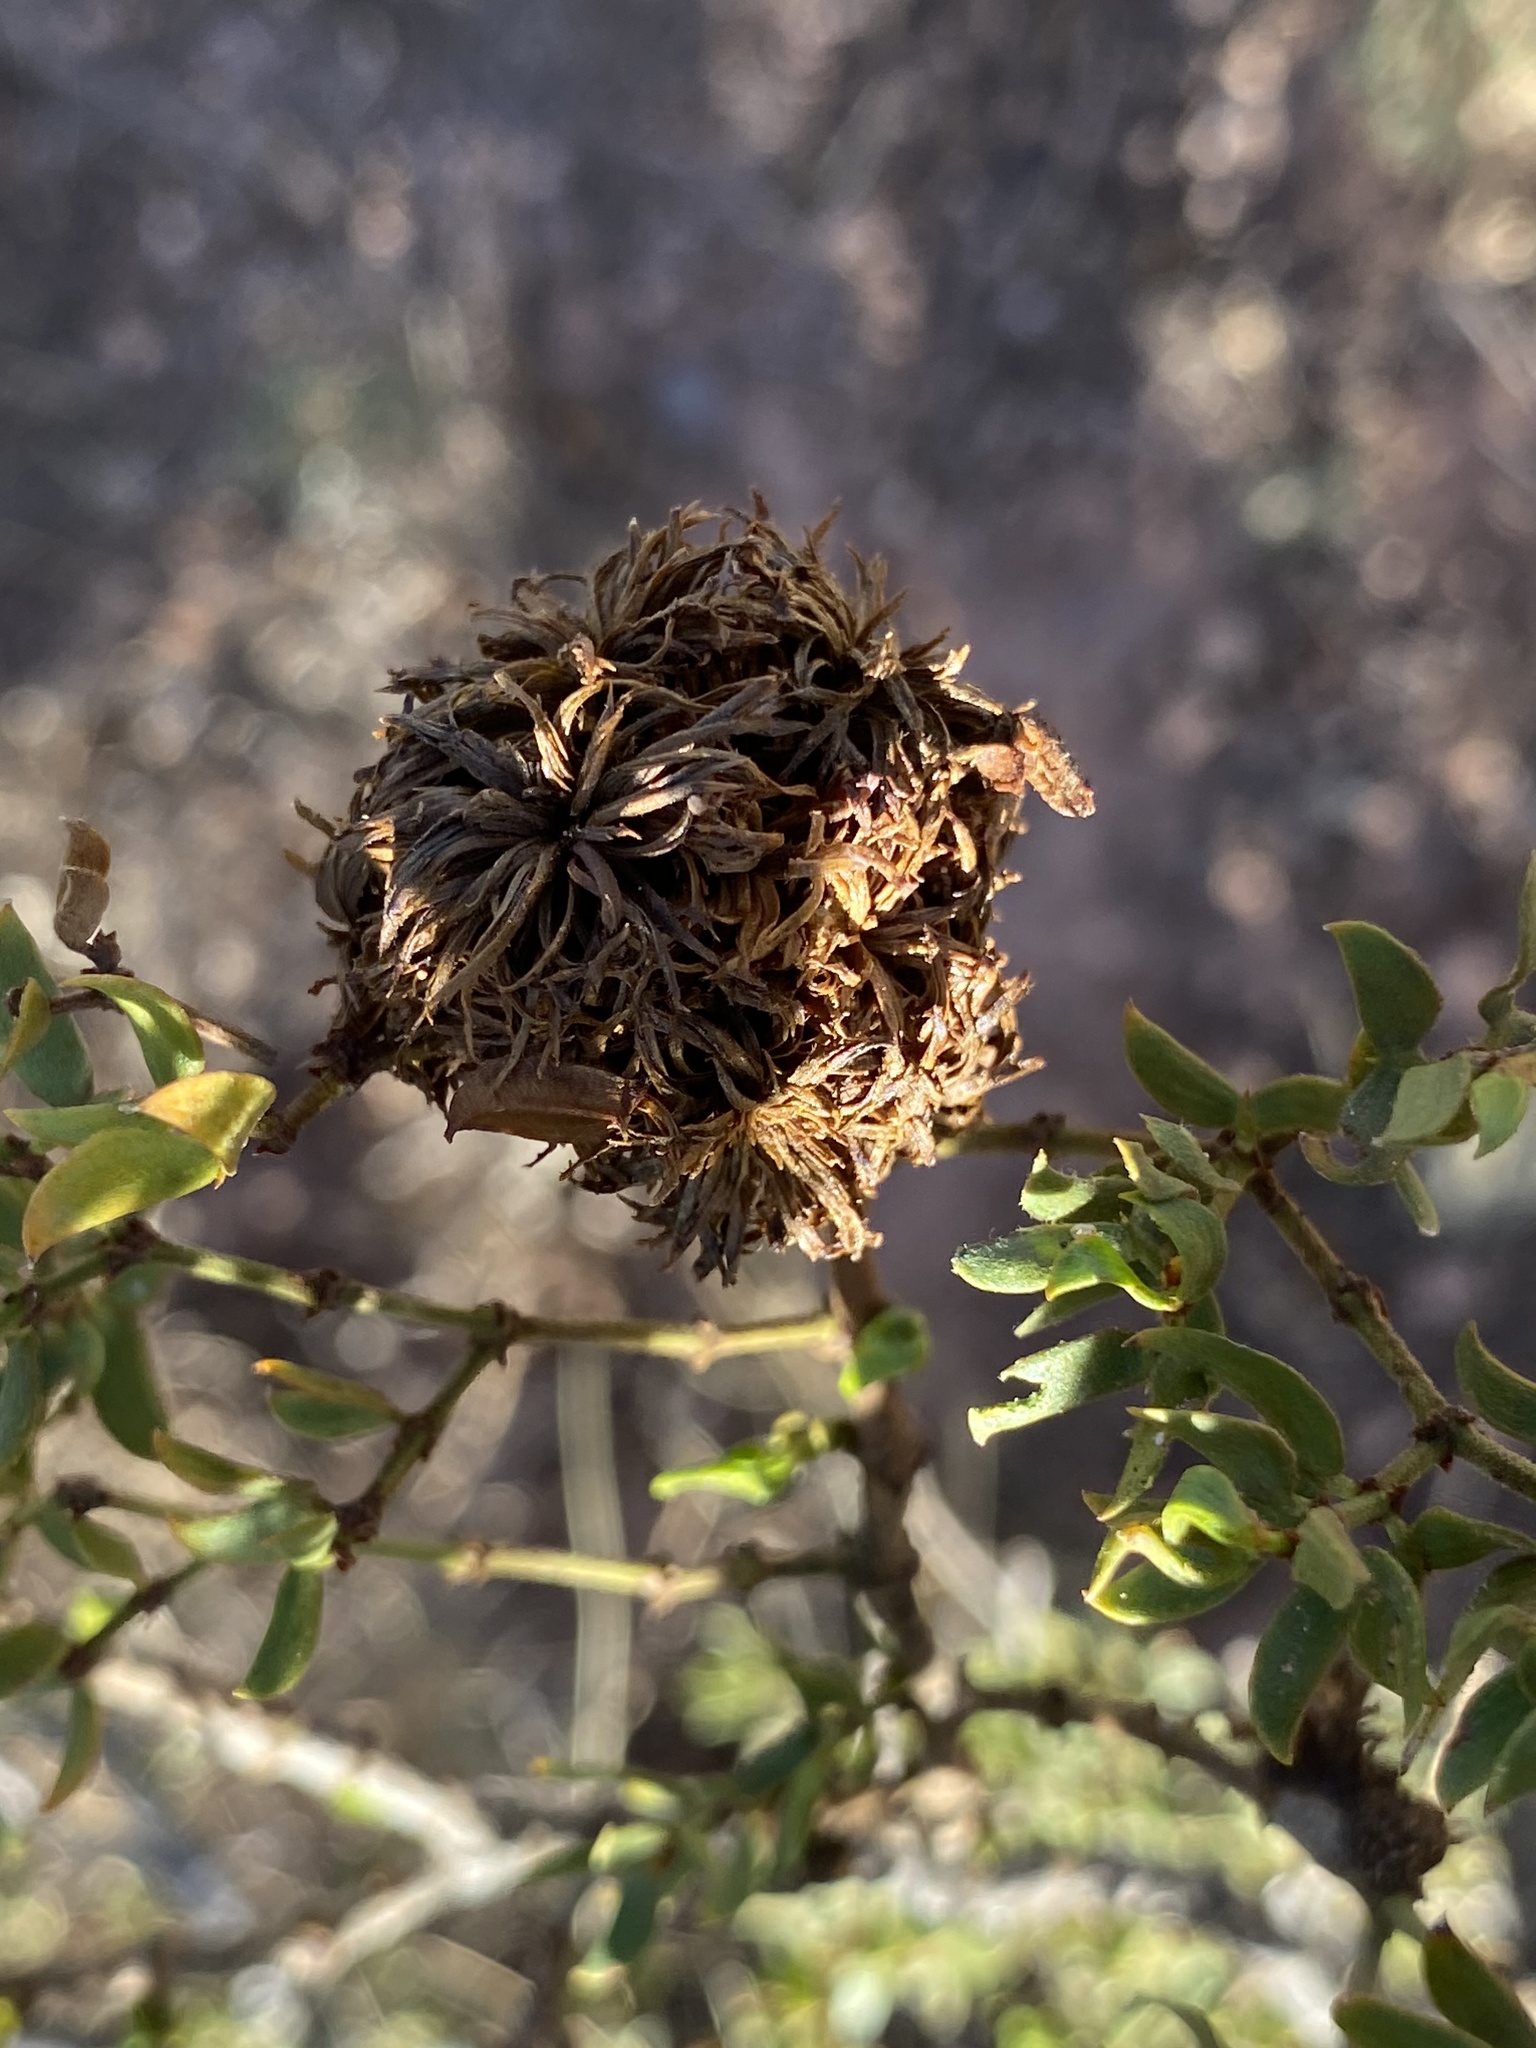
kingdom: Animalia
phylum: Arthropoda
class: Insecta
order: Diptera
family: Cecidomyiidae
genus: Asphondylia
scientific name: Asphondylia auripila
